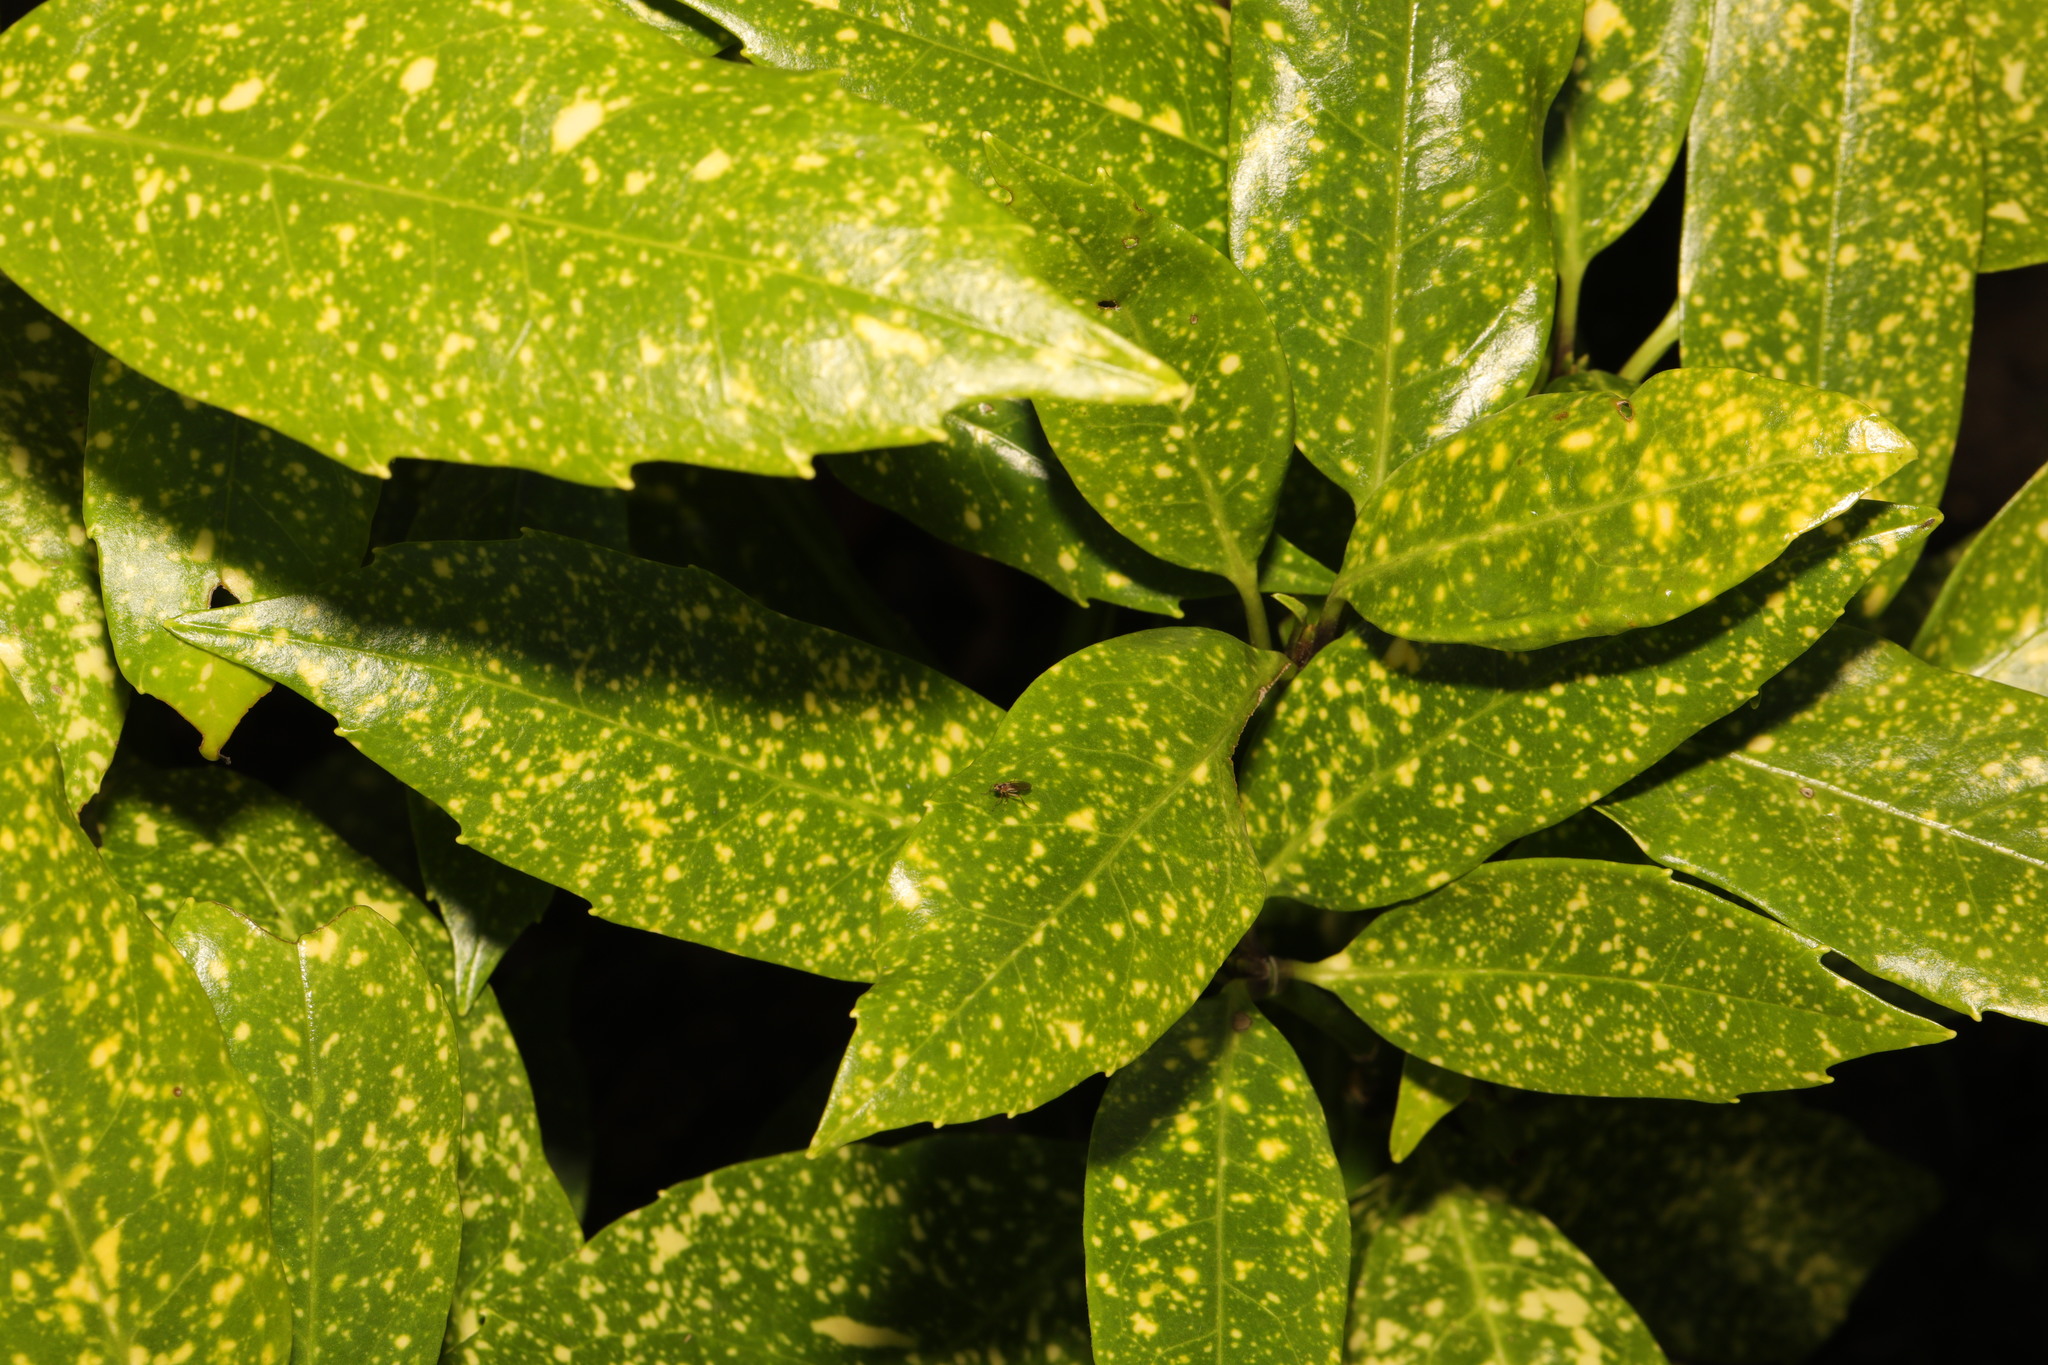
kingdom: Plantae
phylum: Tracheophyta
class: Magnoliopsida
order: Garryales
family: Garryaceae
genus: Aucuba
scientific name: Aucuba japonica
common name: Spotted-laurel
